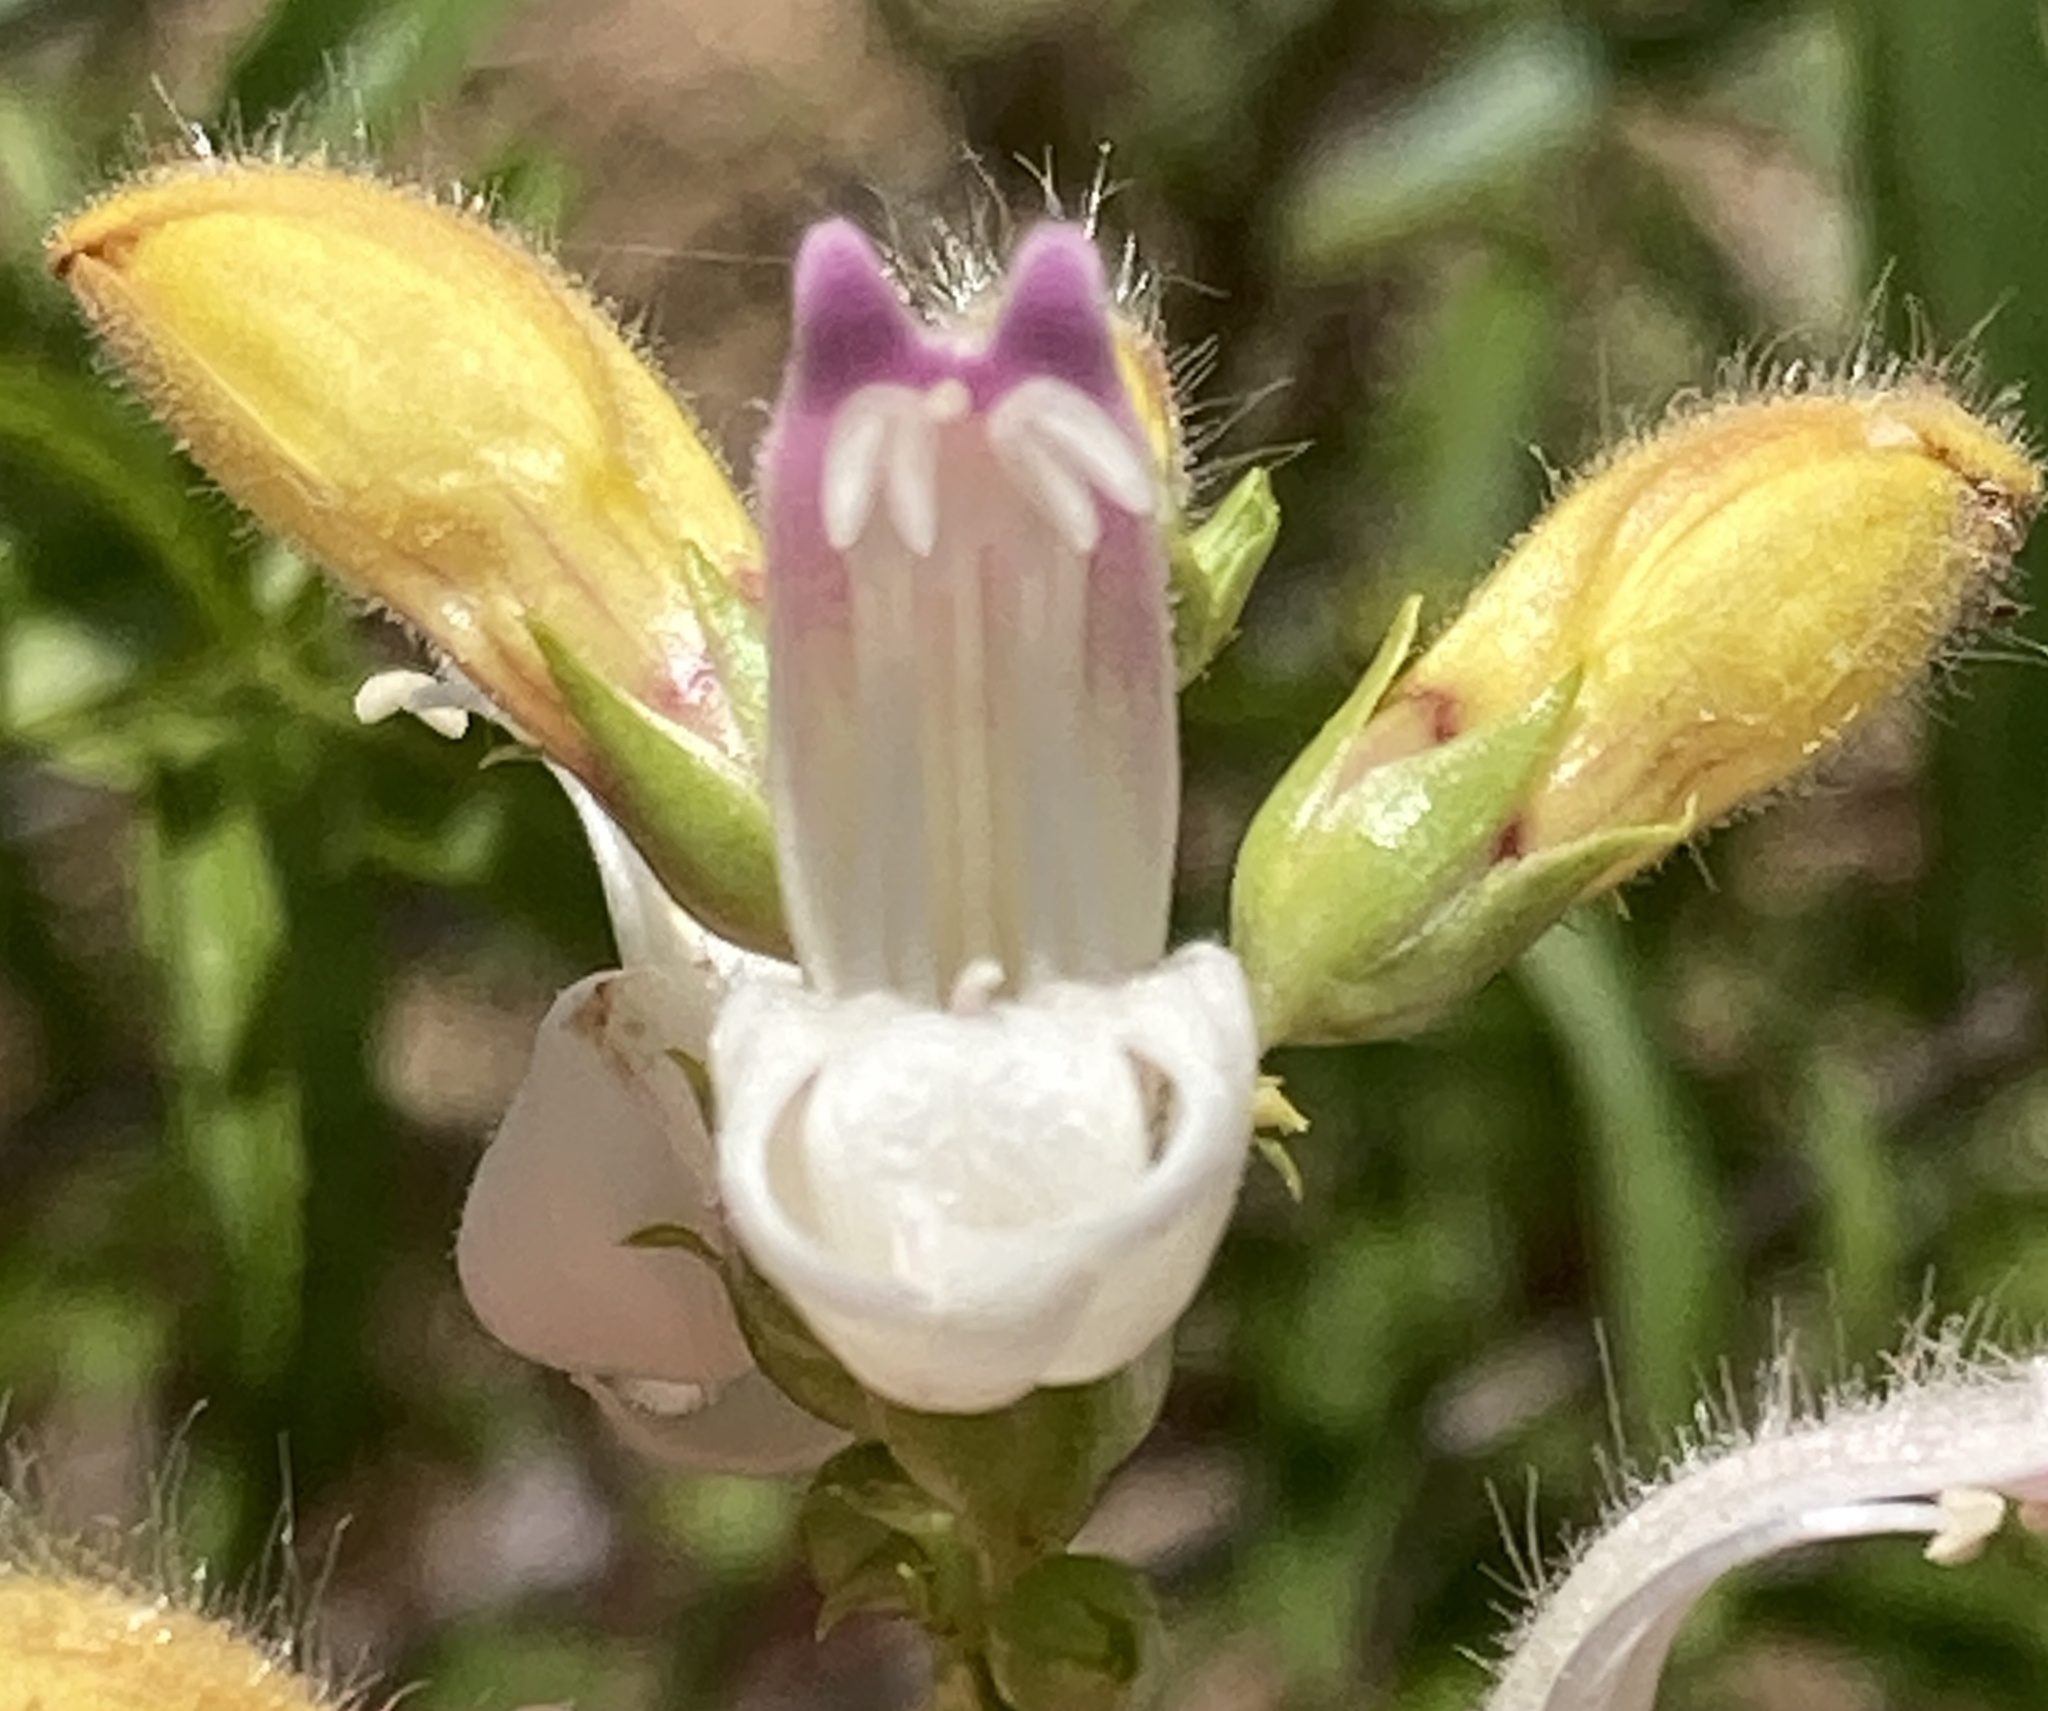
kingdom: Plantae
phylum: Tracheophyta
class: Magnoliopsida
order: Lamiales
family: Plantaginaceae
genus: Keckiella
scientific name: Keckiella breviflora
